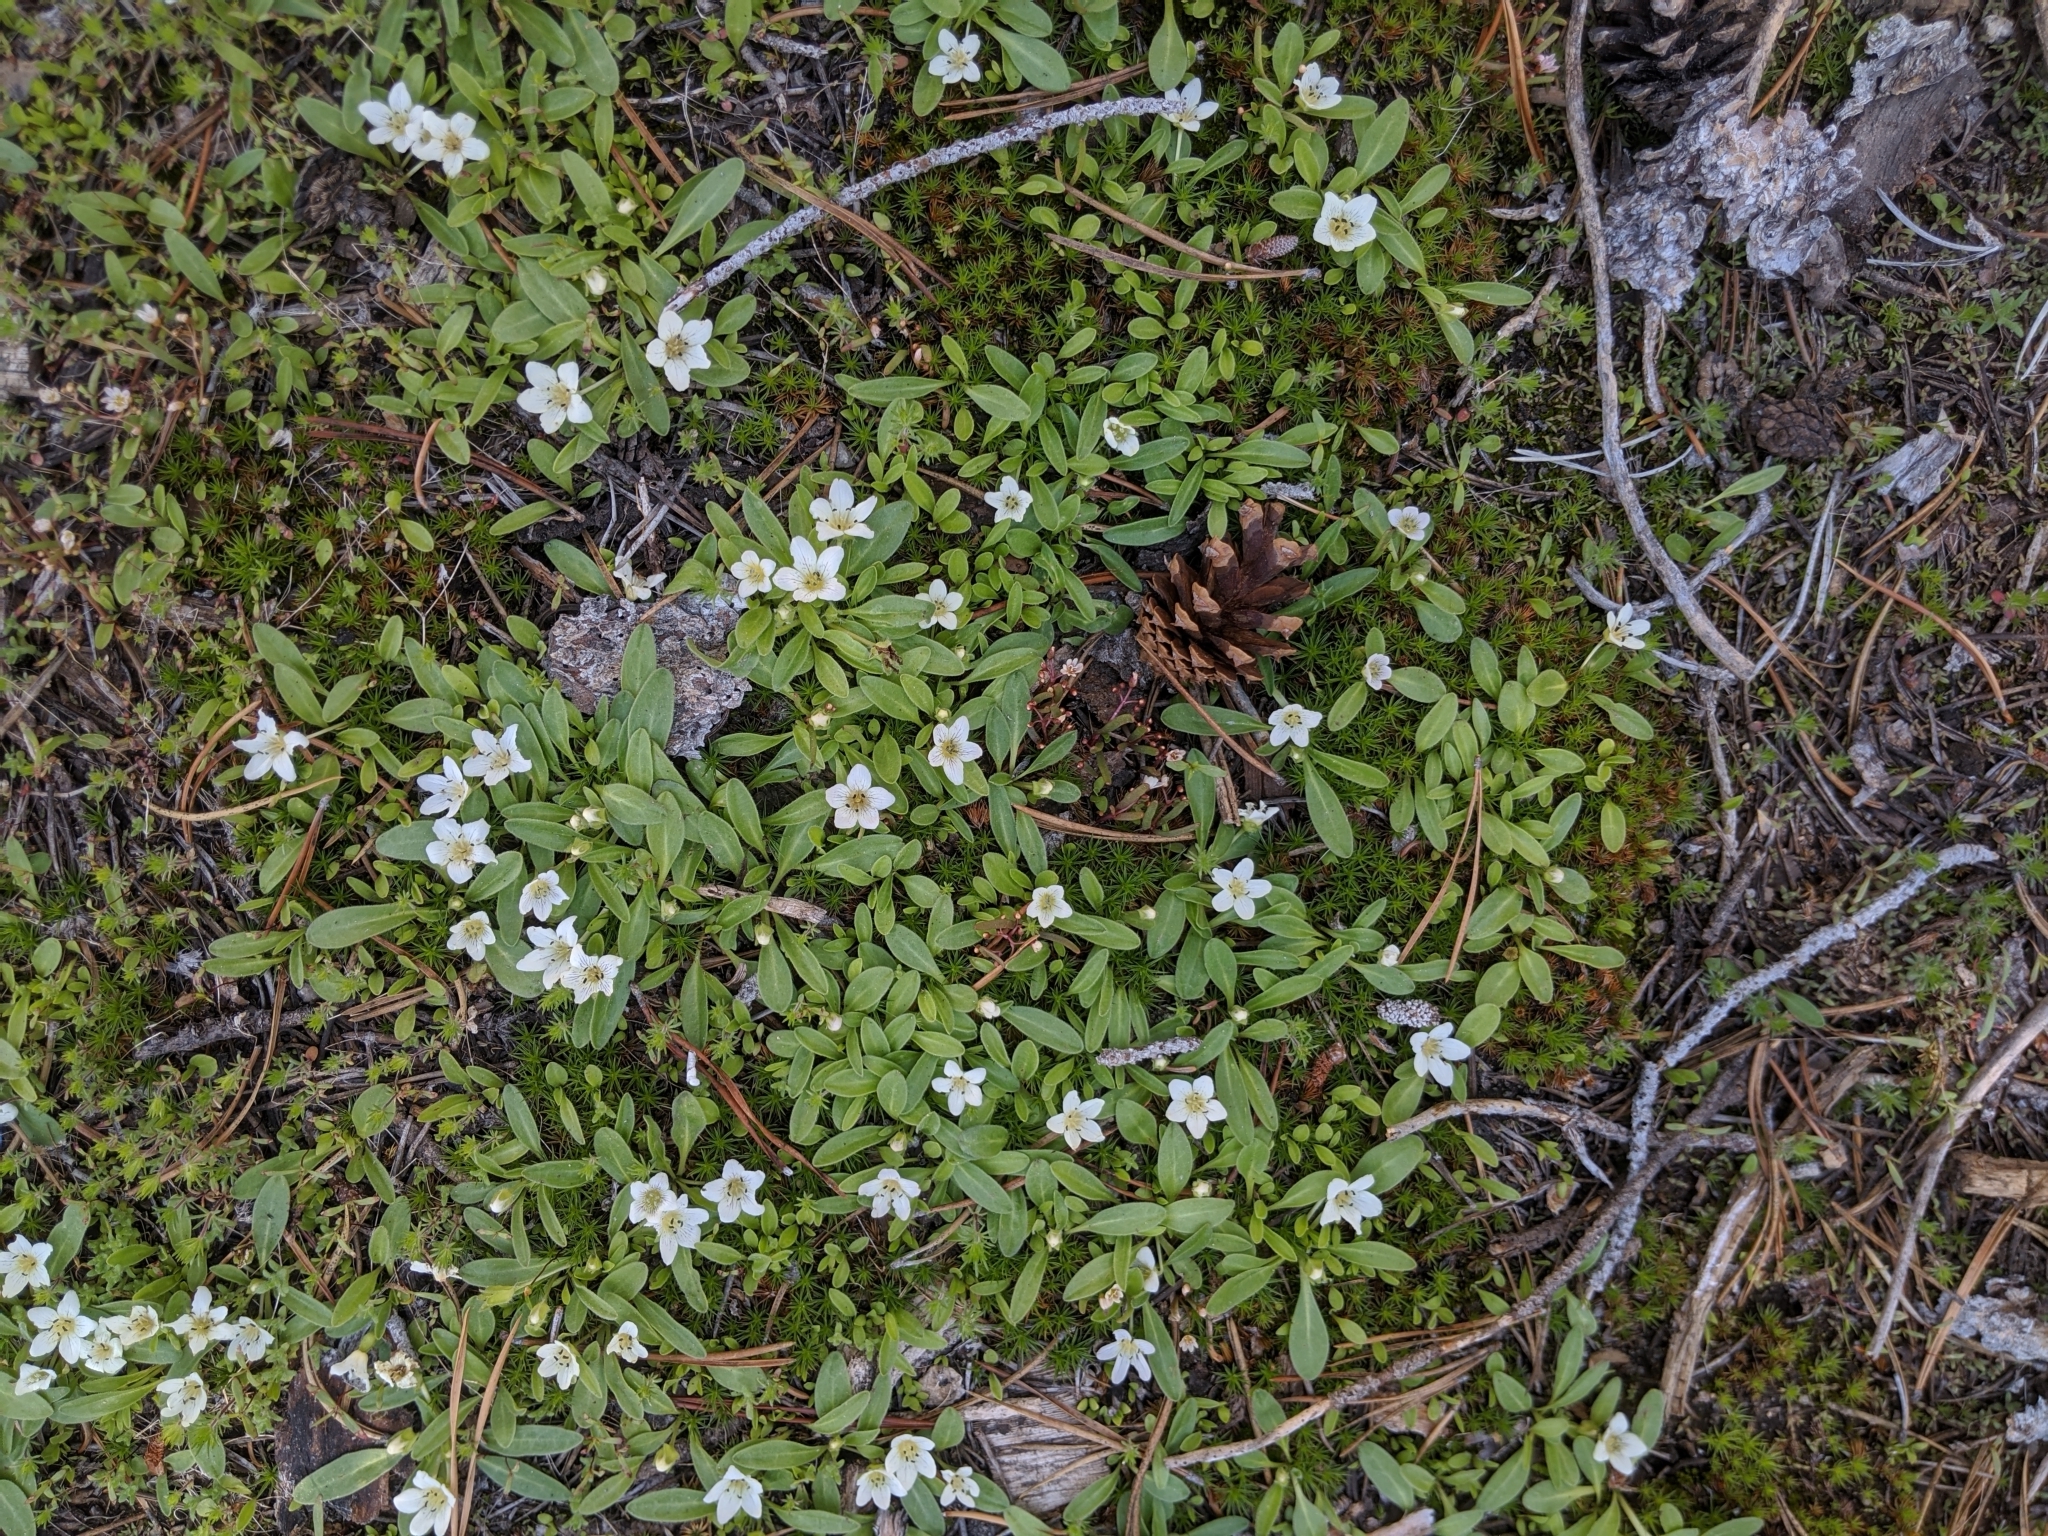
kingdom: Plantae
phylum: Tracheophyta
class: Magnoliopsida
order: Boraginales
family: Hydrophyllaceae
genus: Hesperochiron
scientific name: Hesperochiron pumilus
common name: Dwarf hesperochiron
